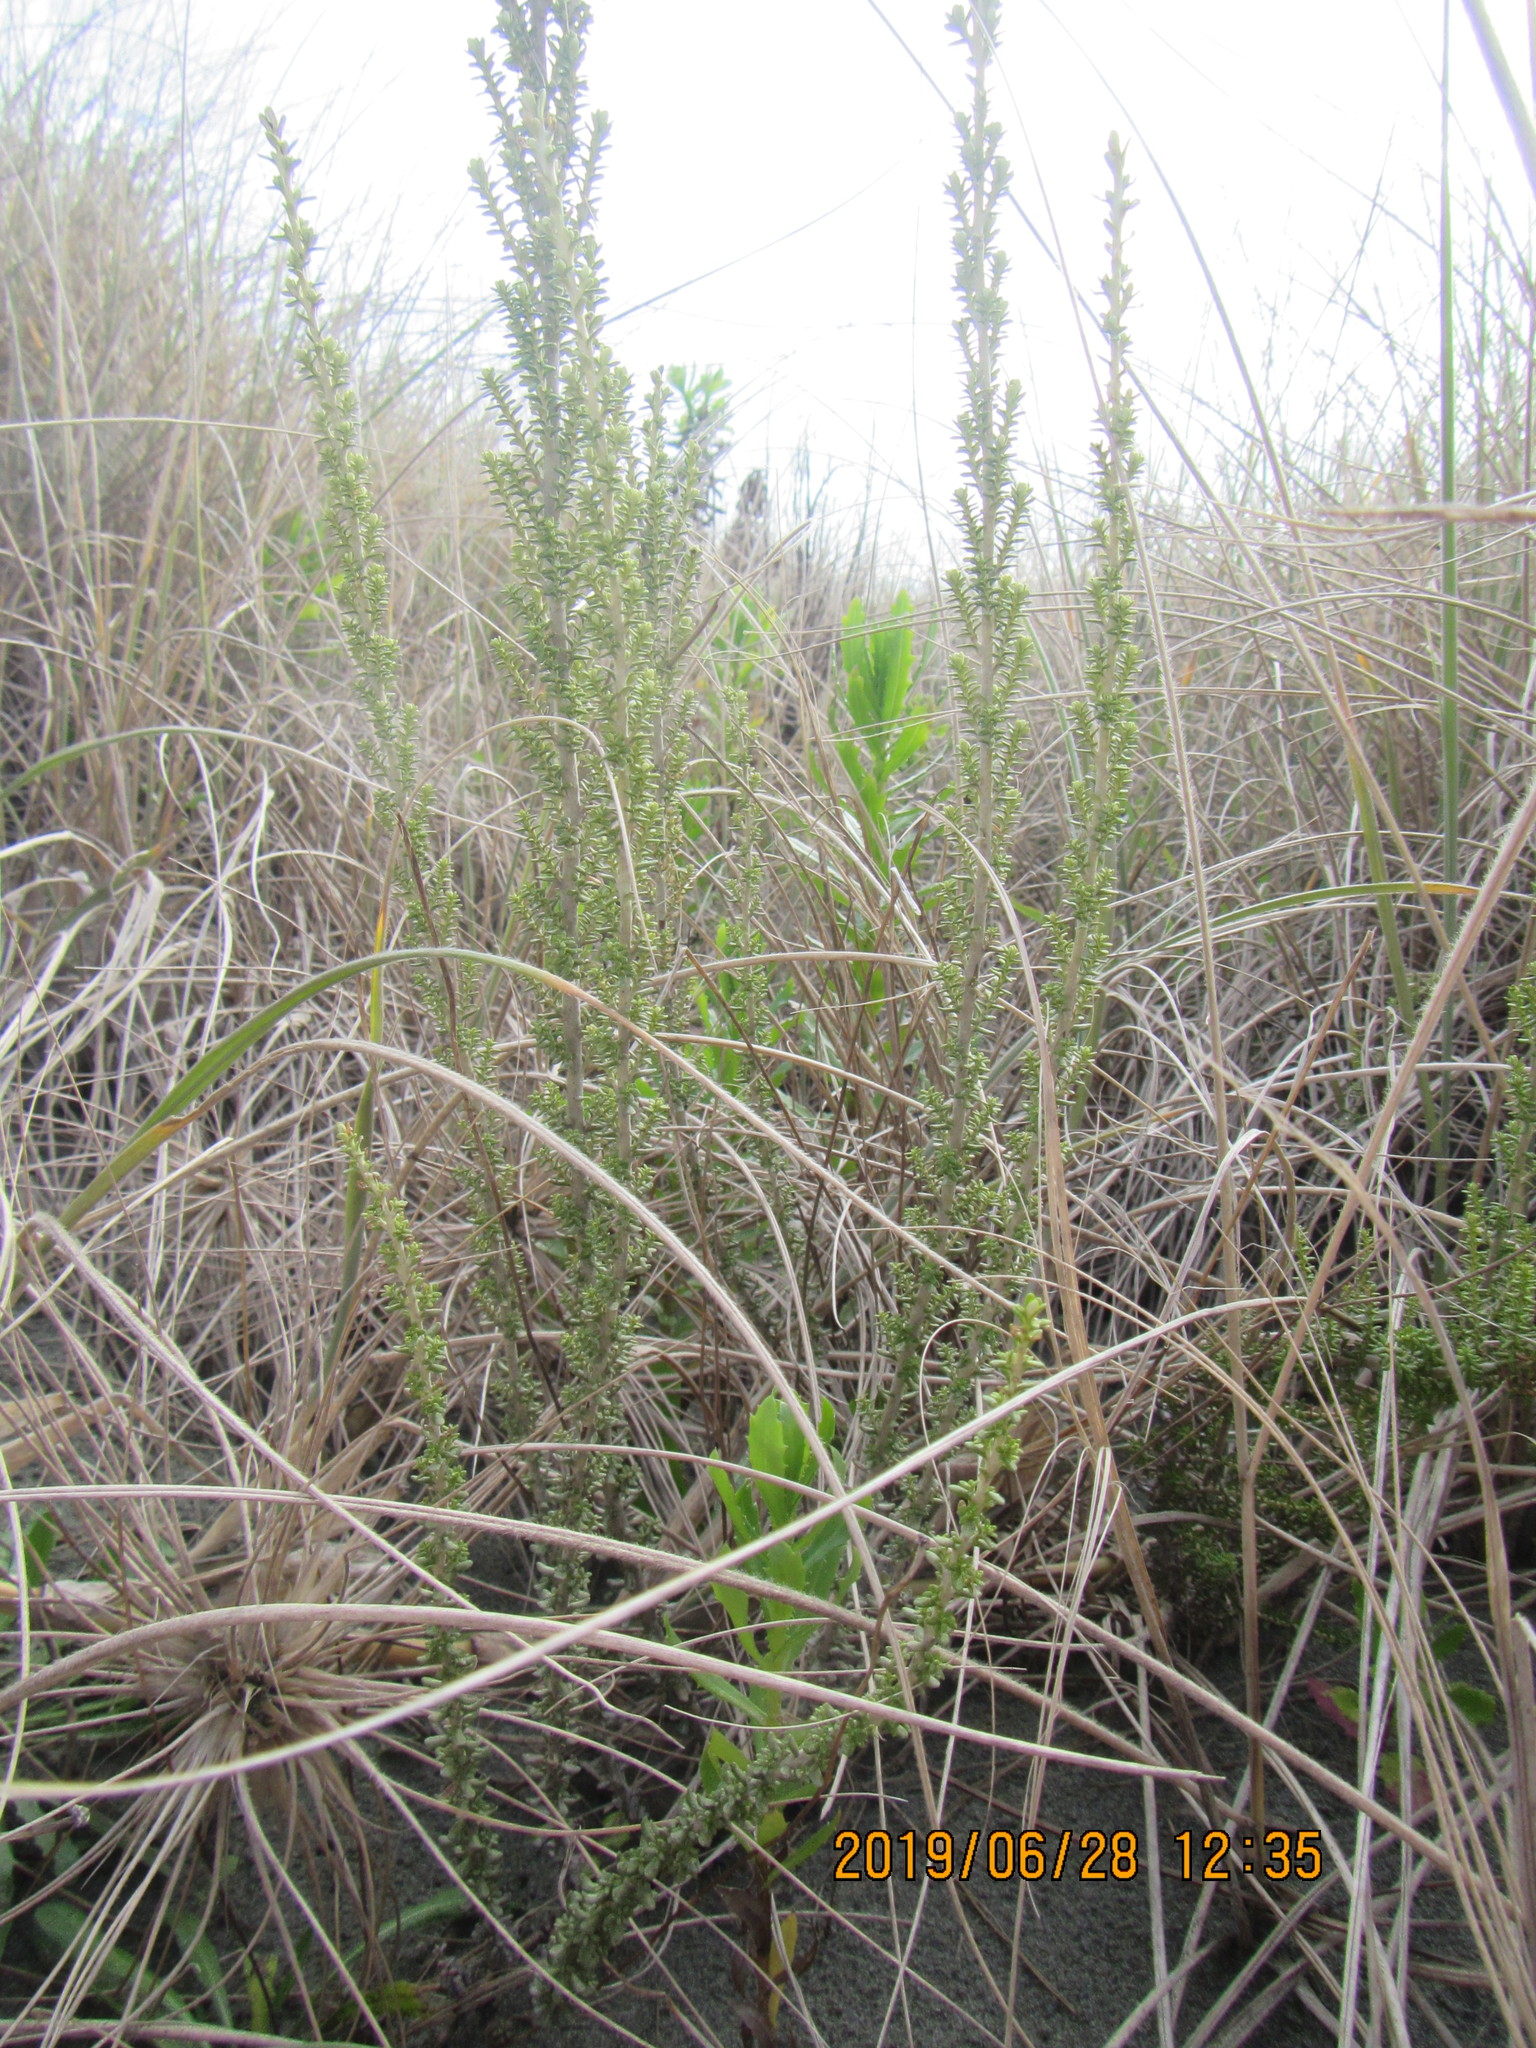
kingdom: Plantae
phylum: Tracheophyta
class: Magnoliopsida
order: Asterales
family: Asteraceae
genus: Ozothamnus
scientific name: Ozothamnus leptophyllus
